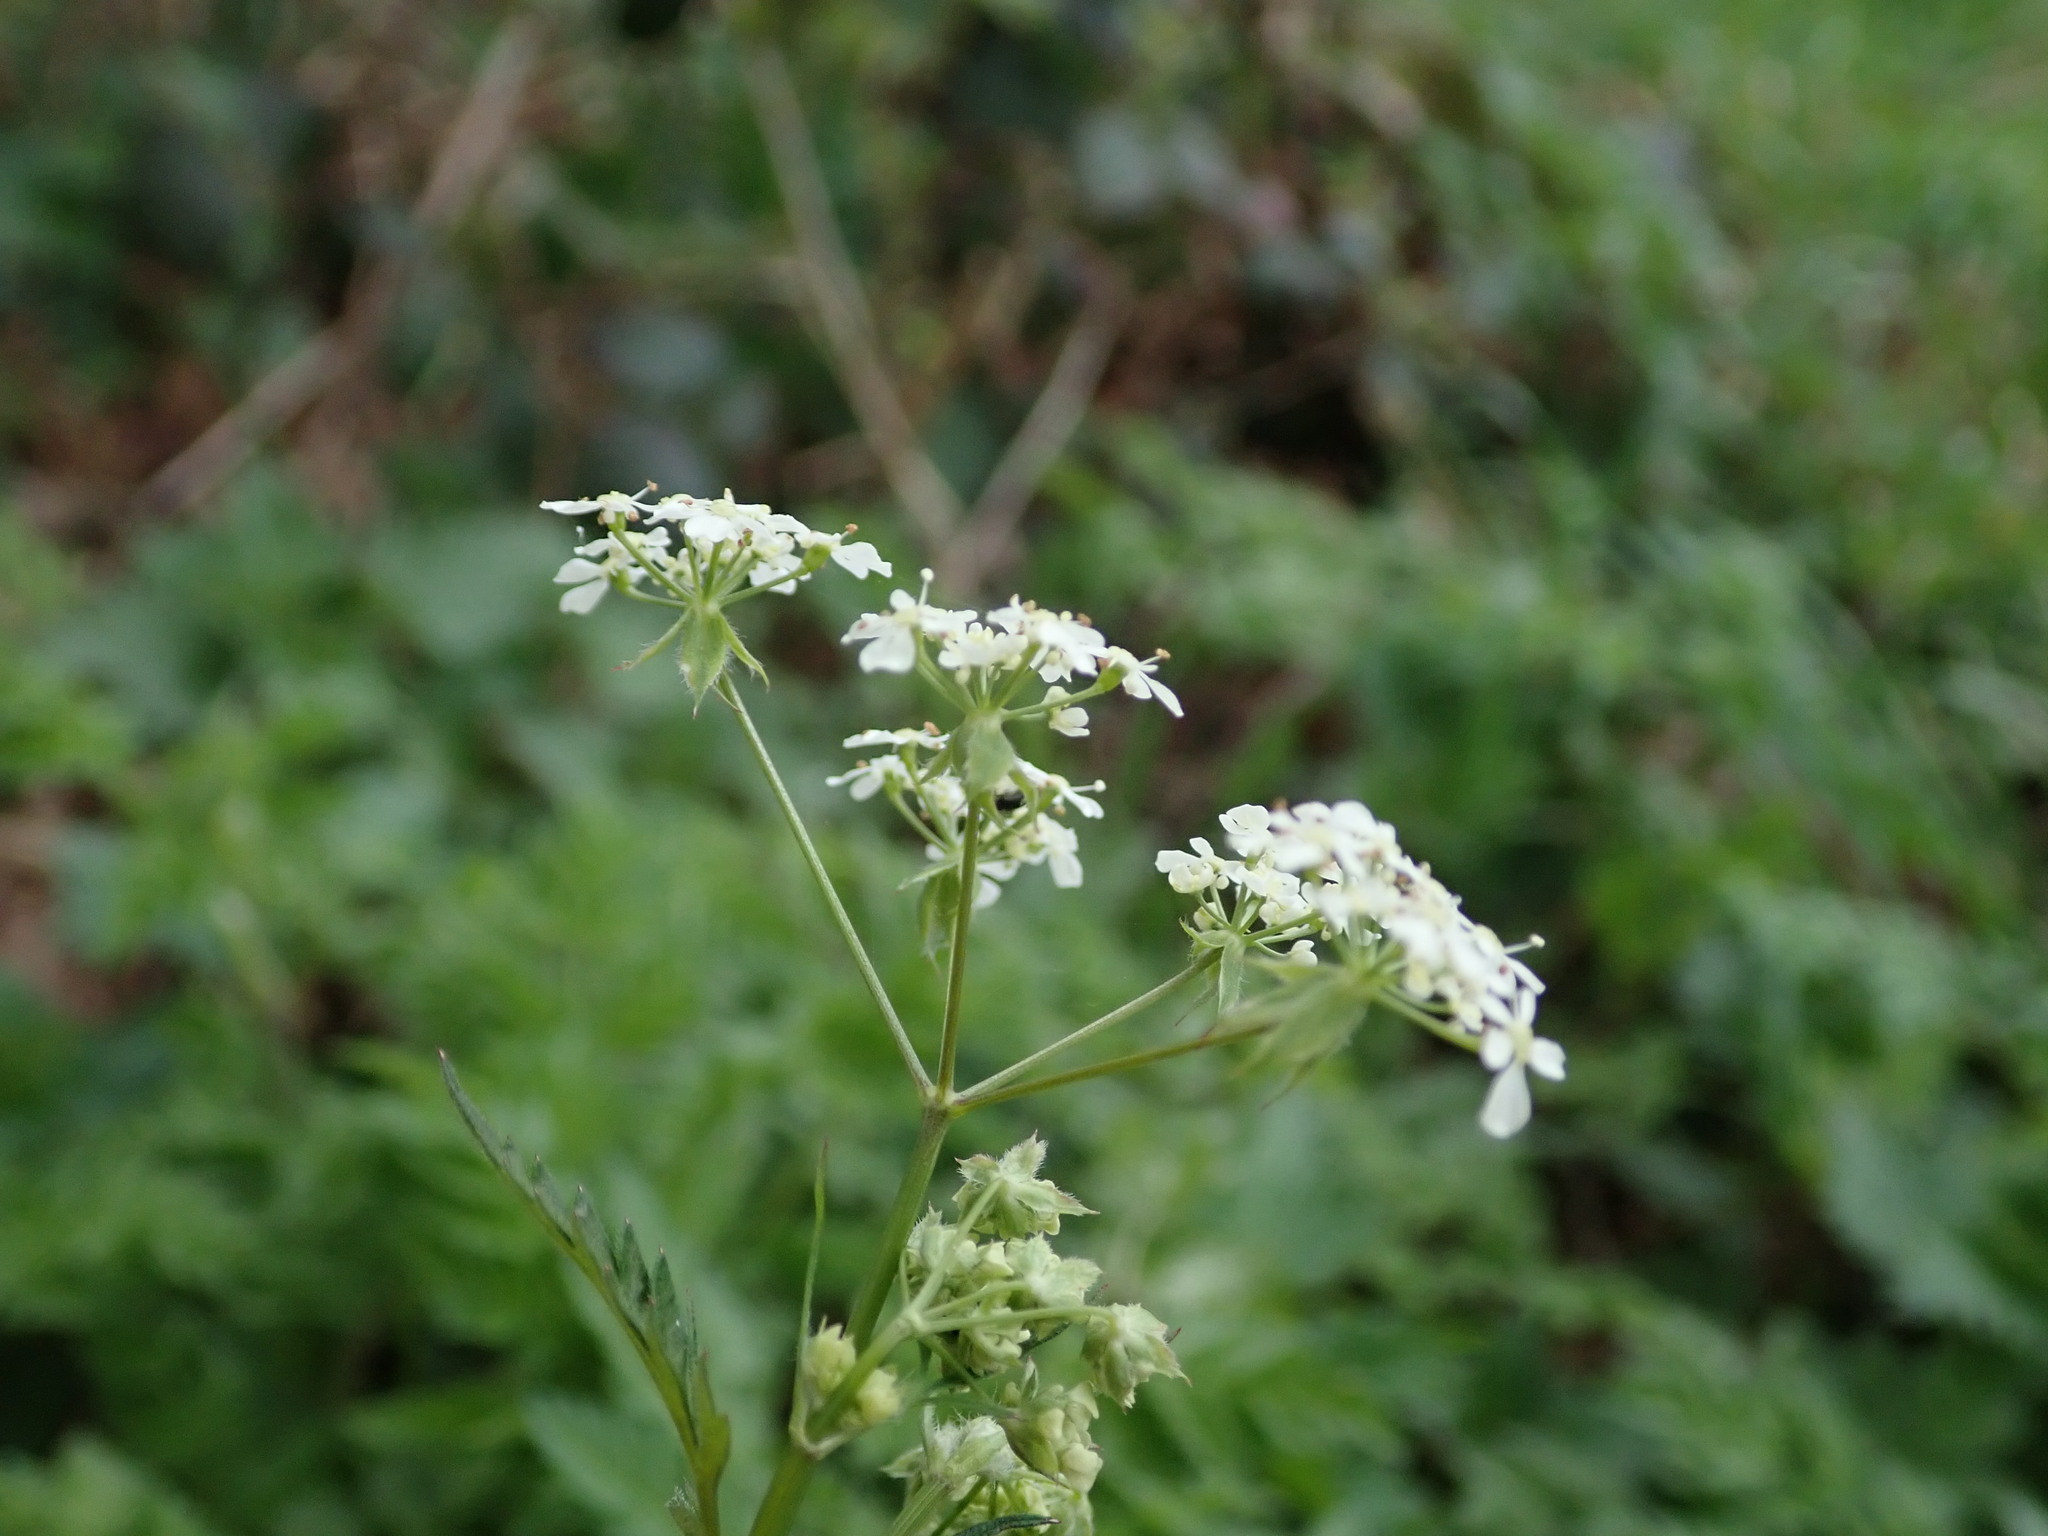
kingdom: Plantae
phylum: Tracheophyta
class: Magnoliopsida
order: Apiales
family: Apiaceae
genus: Anthriscus
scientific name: Anthriscus sylvestris
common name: Cow parsley
